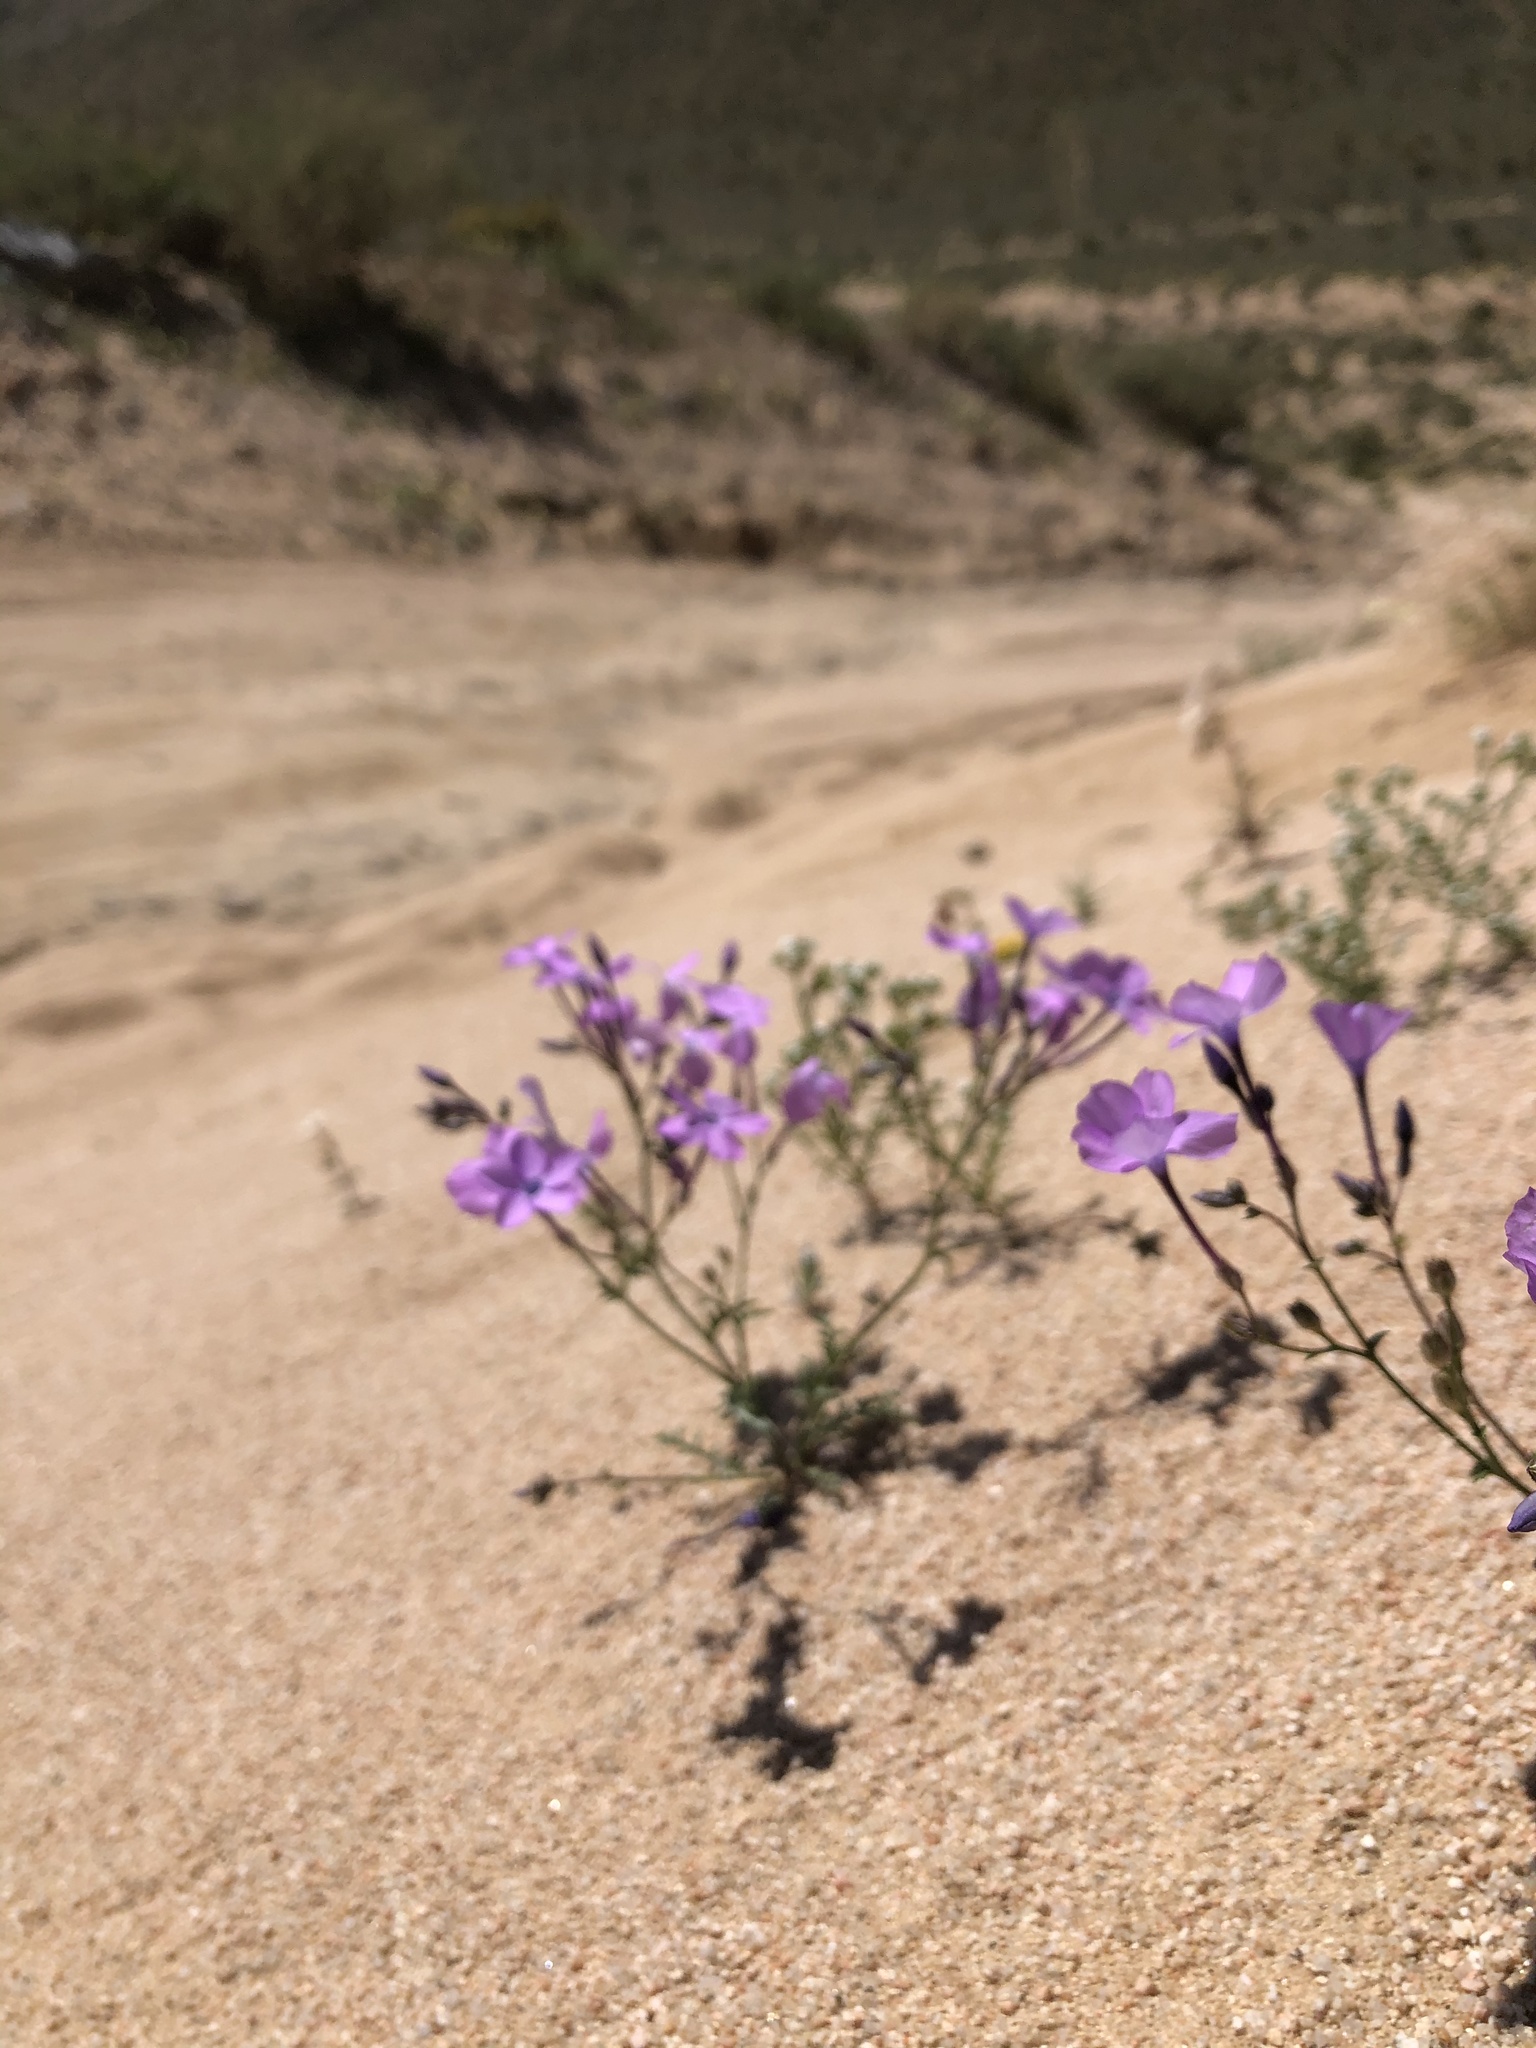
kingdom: Plantae
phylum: Tracheophyta
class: Magnoliopsida
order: Ericales
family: Polemoniaceae
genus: Gilia
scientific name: Gilia cana
